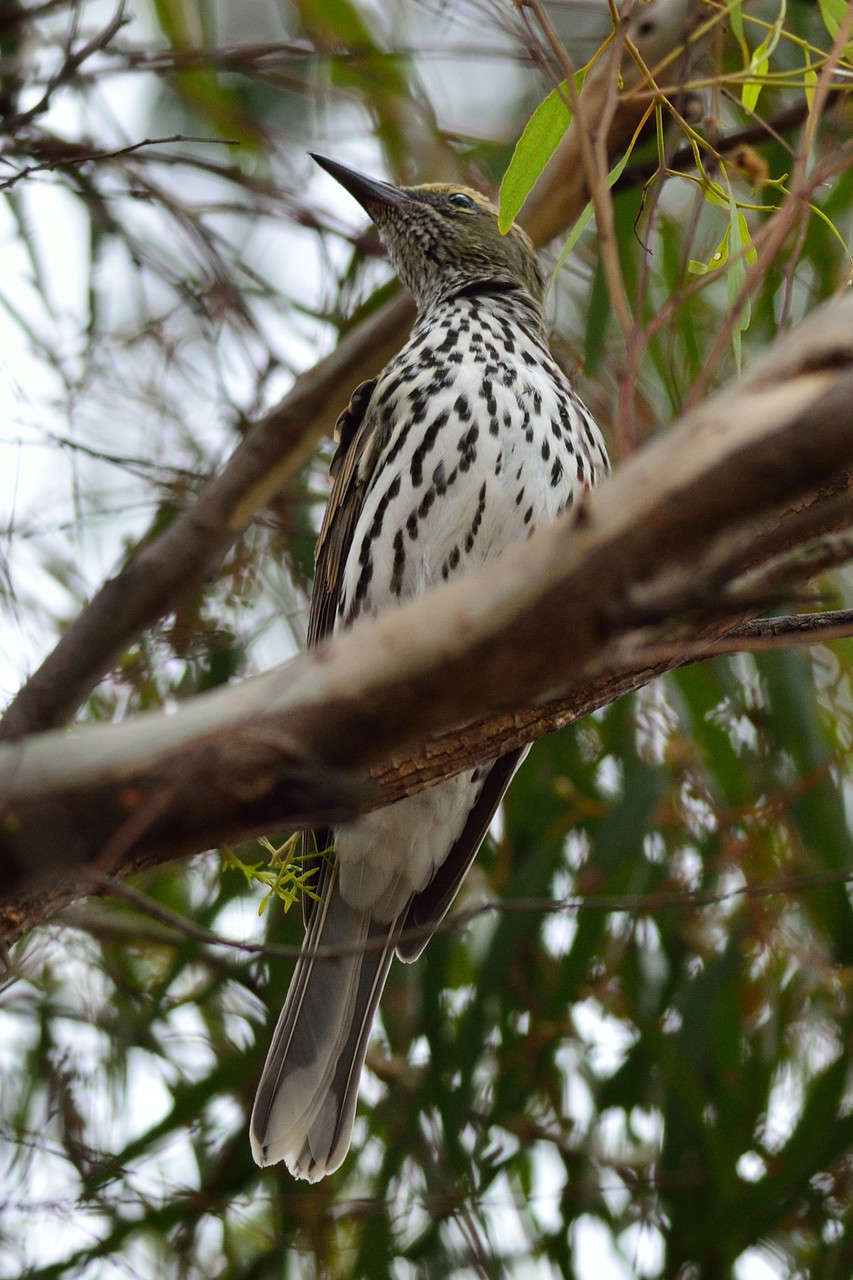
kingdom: Animalia
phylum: Chordata
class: Aves
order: Passeriformes
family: Oriolidae
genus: Oriolus
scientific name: Oriolus sagittatus
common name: Olive-backed oriole
